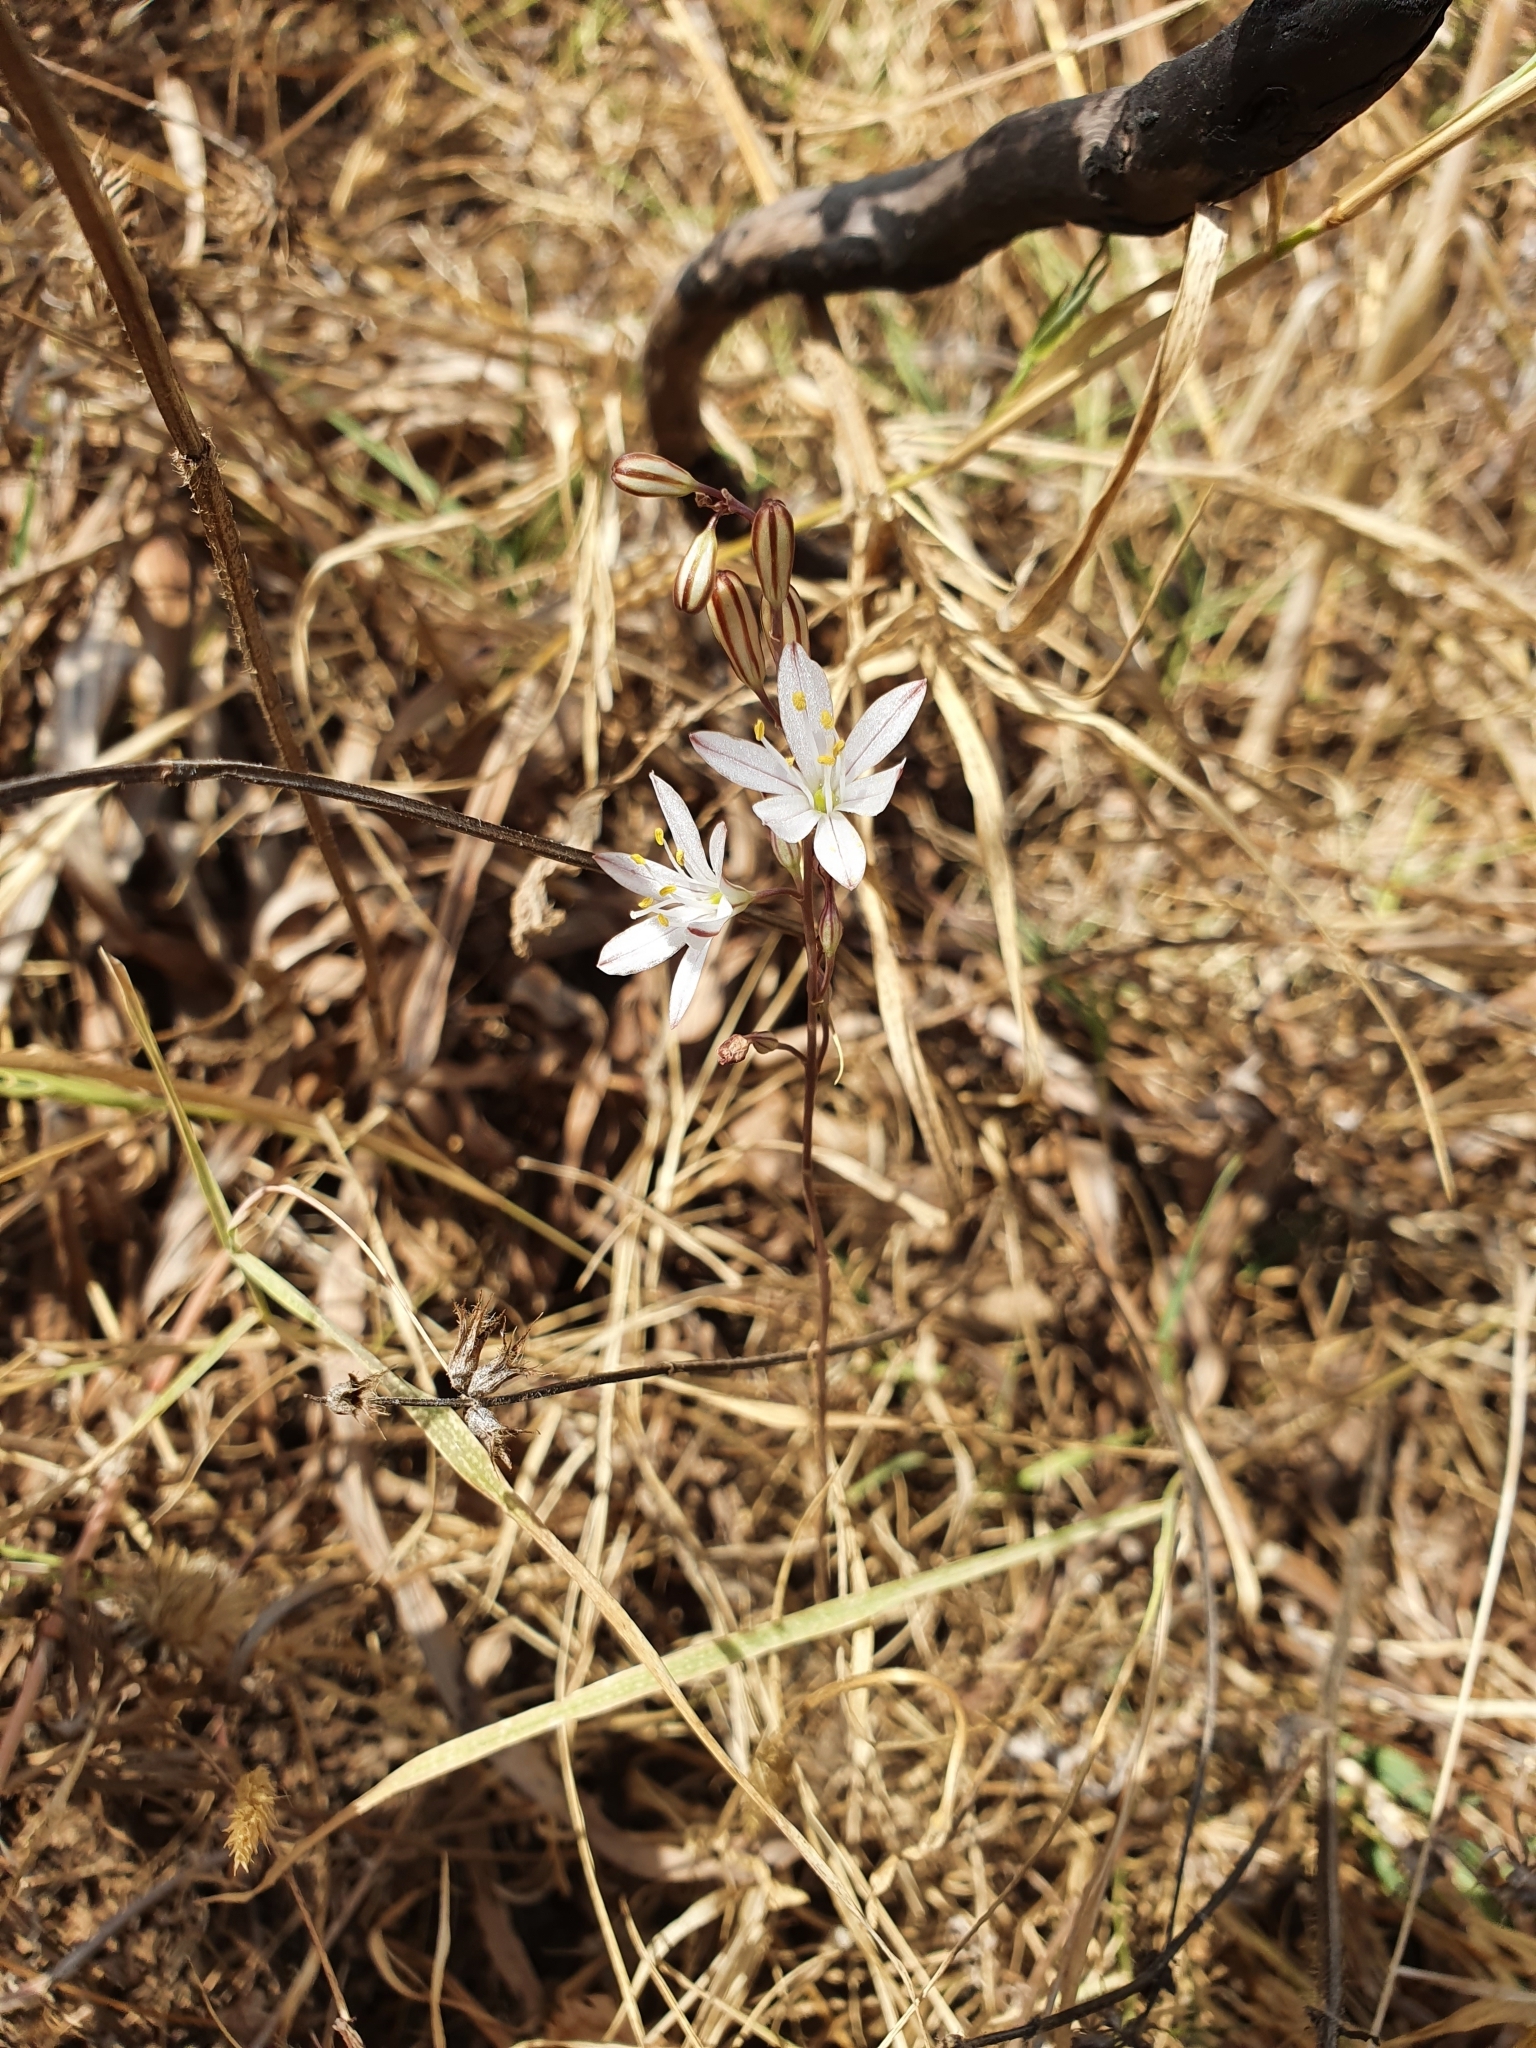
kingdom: Plantae
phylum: Tracheophyta
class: Liliopsida
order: Asparagales
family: Asparagaceae
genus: Drimia
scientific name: Drimia fugax
